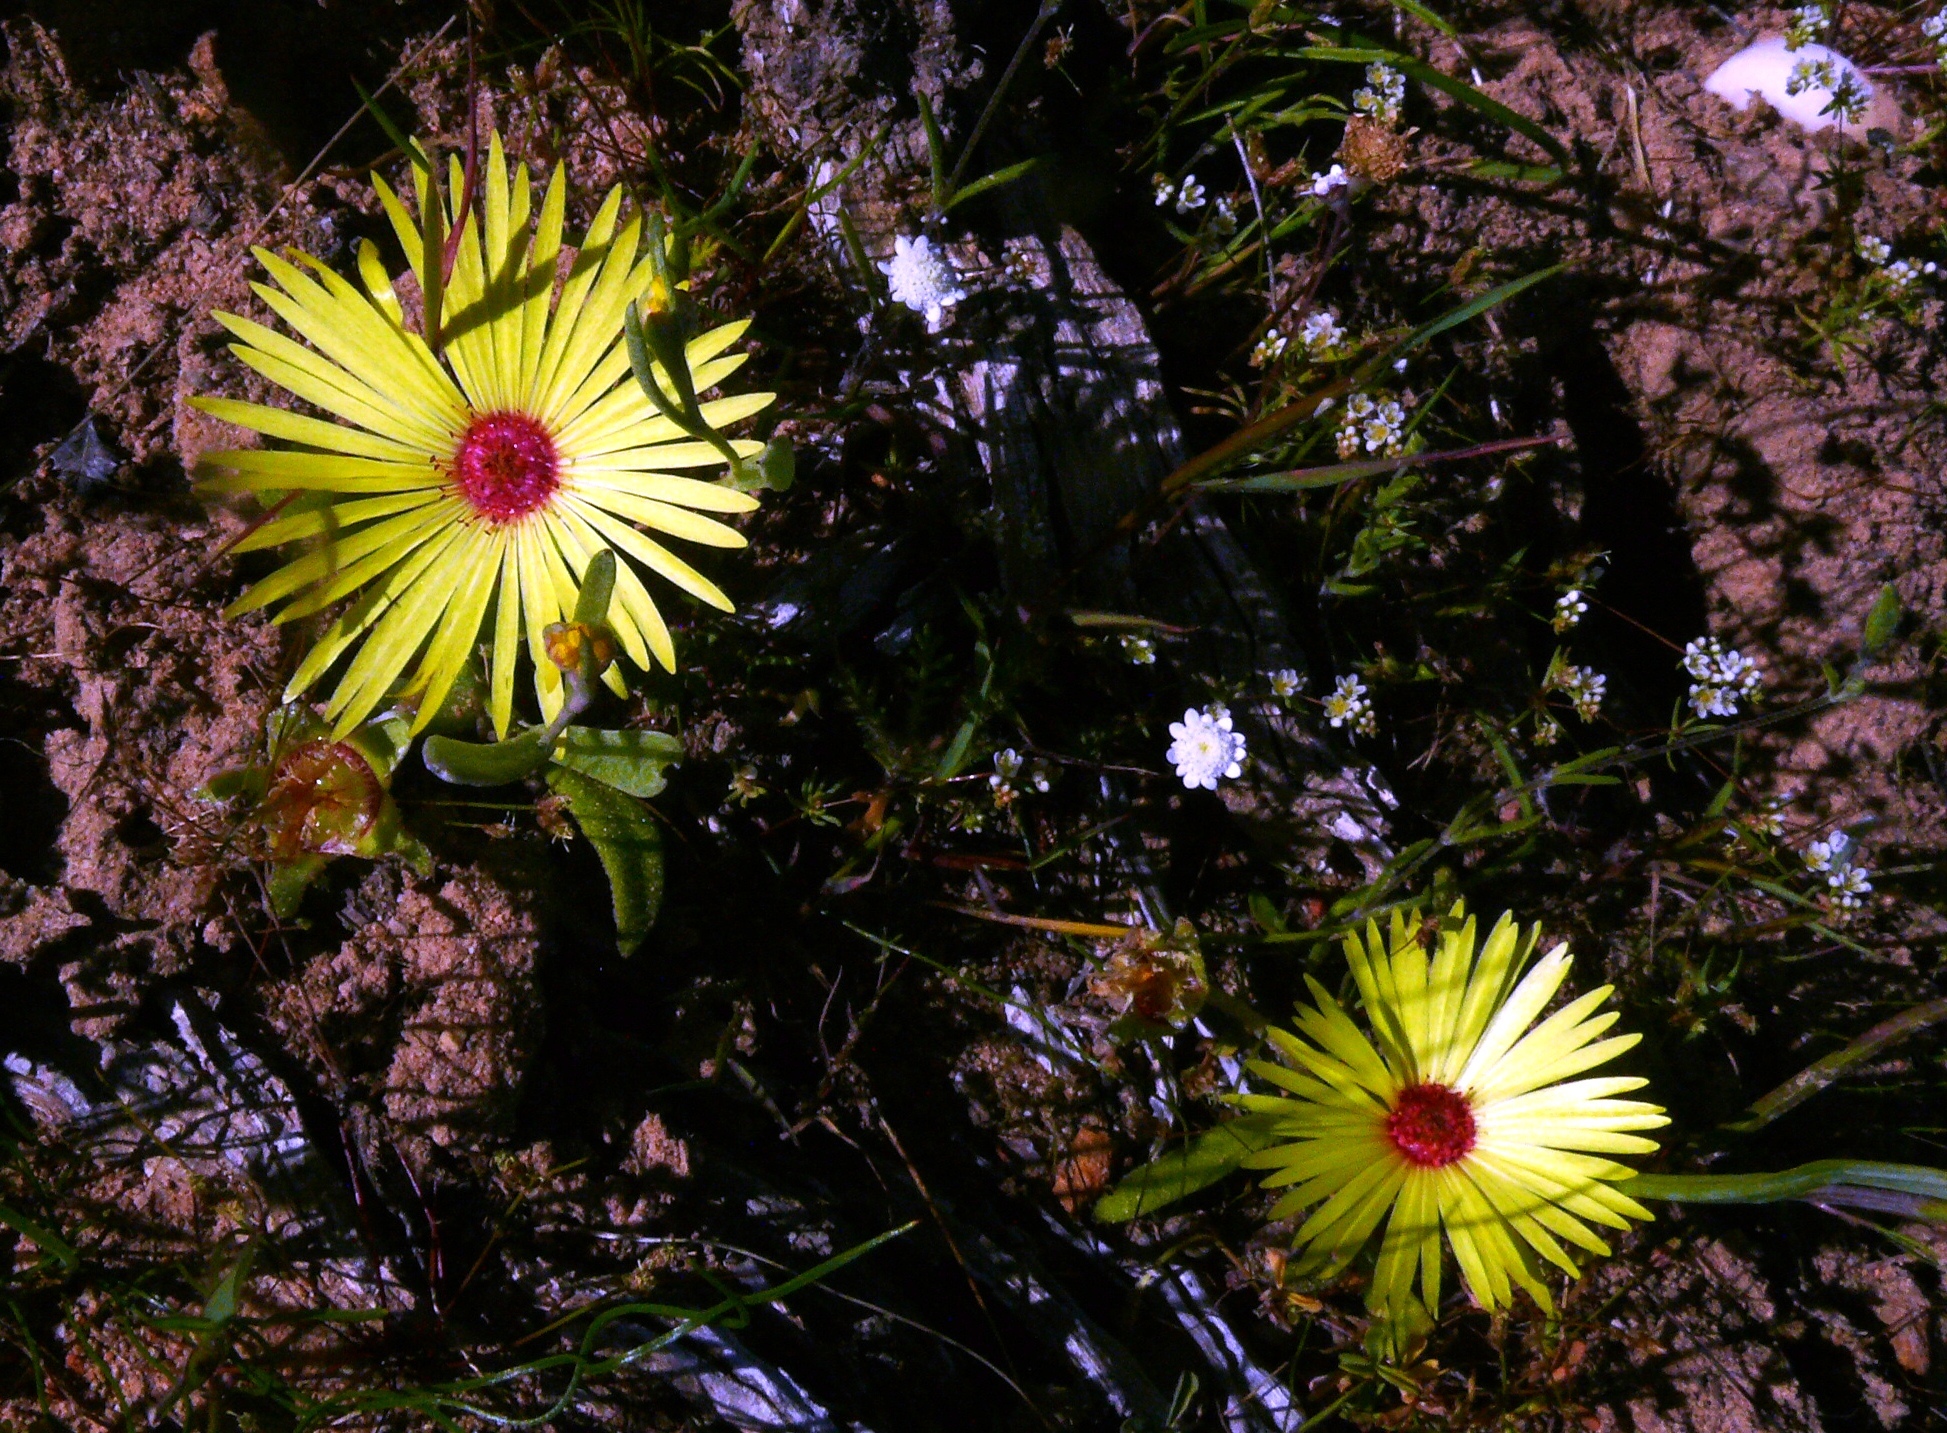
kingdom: Plantae
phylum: Tracheophyta
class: Magnoliopsida
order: Caryophyllales
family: Aizoaceae
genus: Cleretum
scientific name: Cleretum bellidiforme
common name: Livingstone daisy
